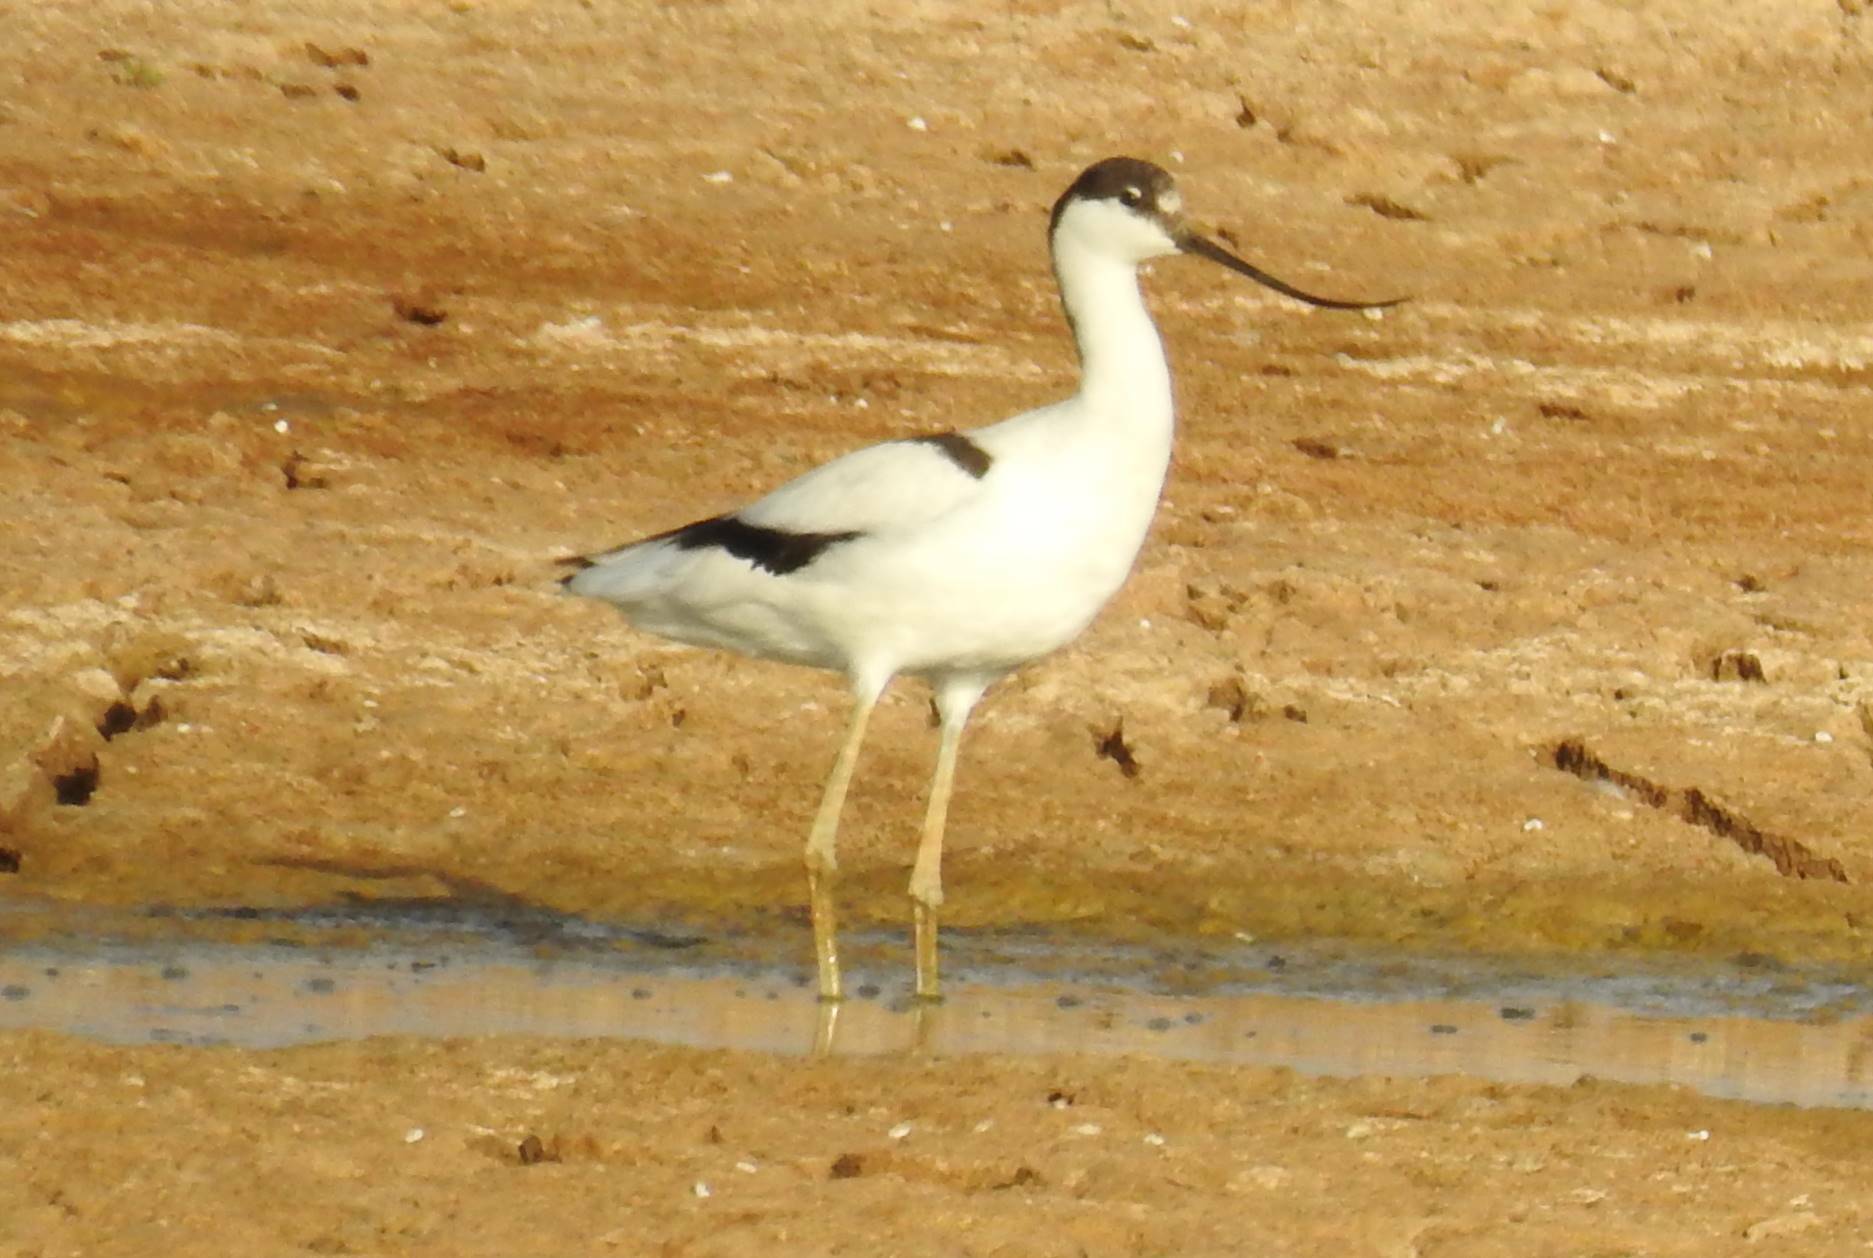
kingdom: Animalia
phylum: Chordata
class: Aves
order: Charadriiformes
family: Recurvirostridae
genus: Recurvirostra
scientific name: Recurvirostra avosetta
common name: Pied avocet
